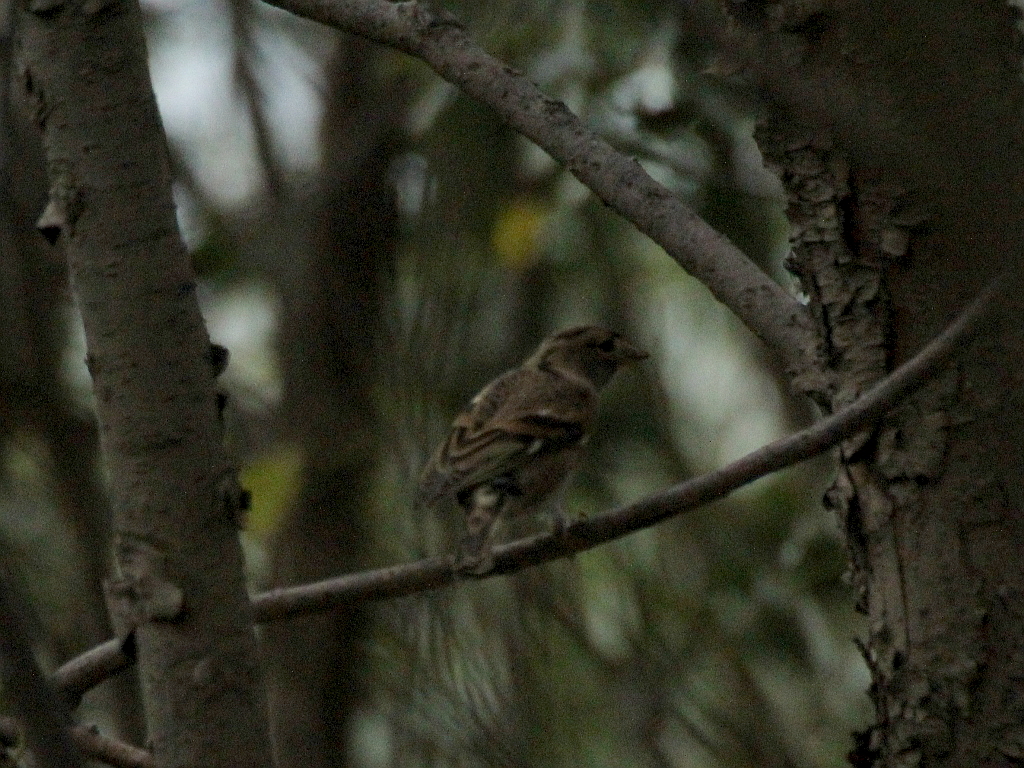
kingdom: Animalia
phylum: Chordata
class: Aves
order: Passeriformes
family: Fringillidae
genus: Fringilla
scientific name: Fringilla montifringilla
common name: Brambling
